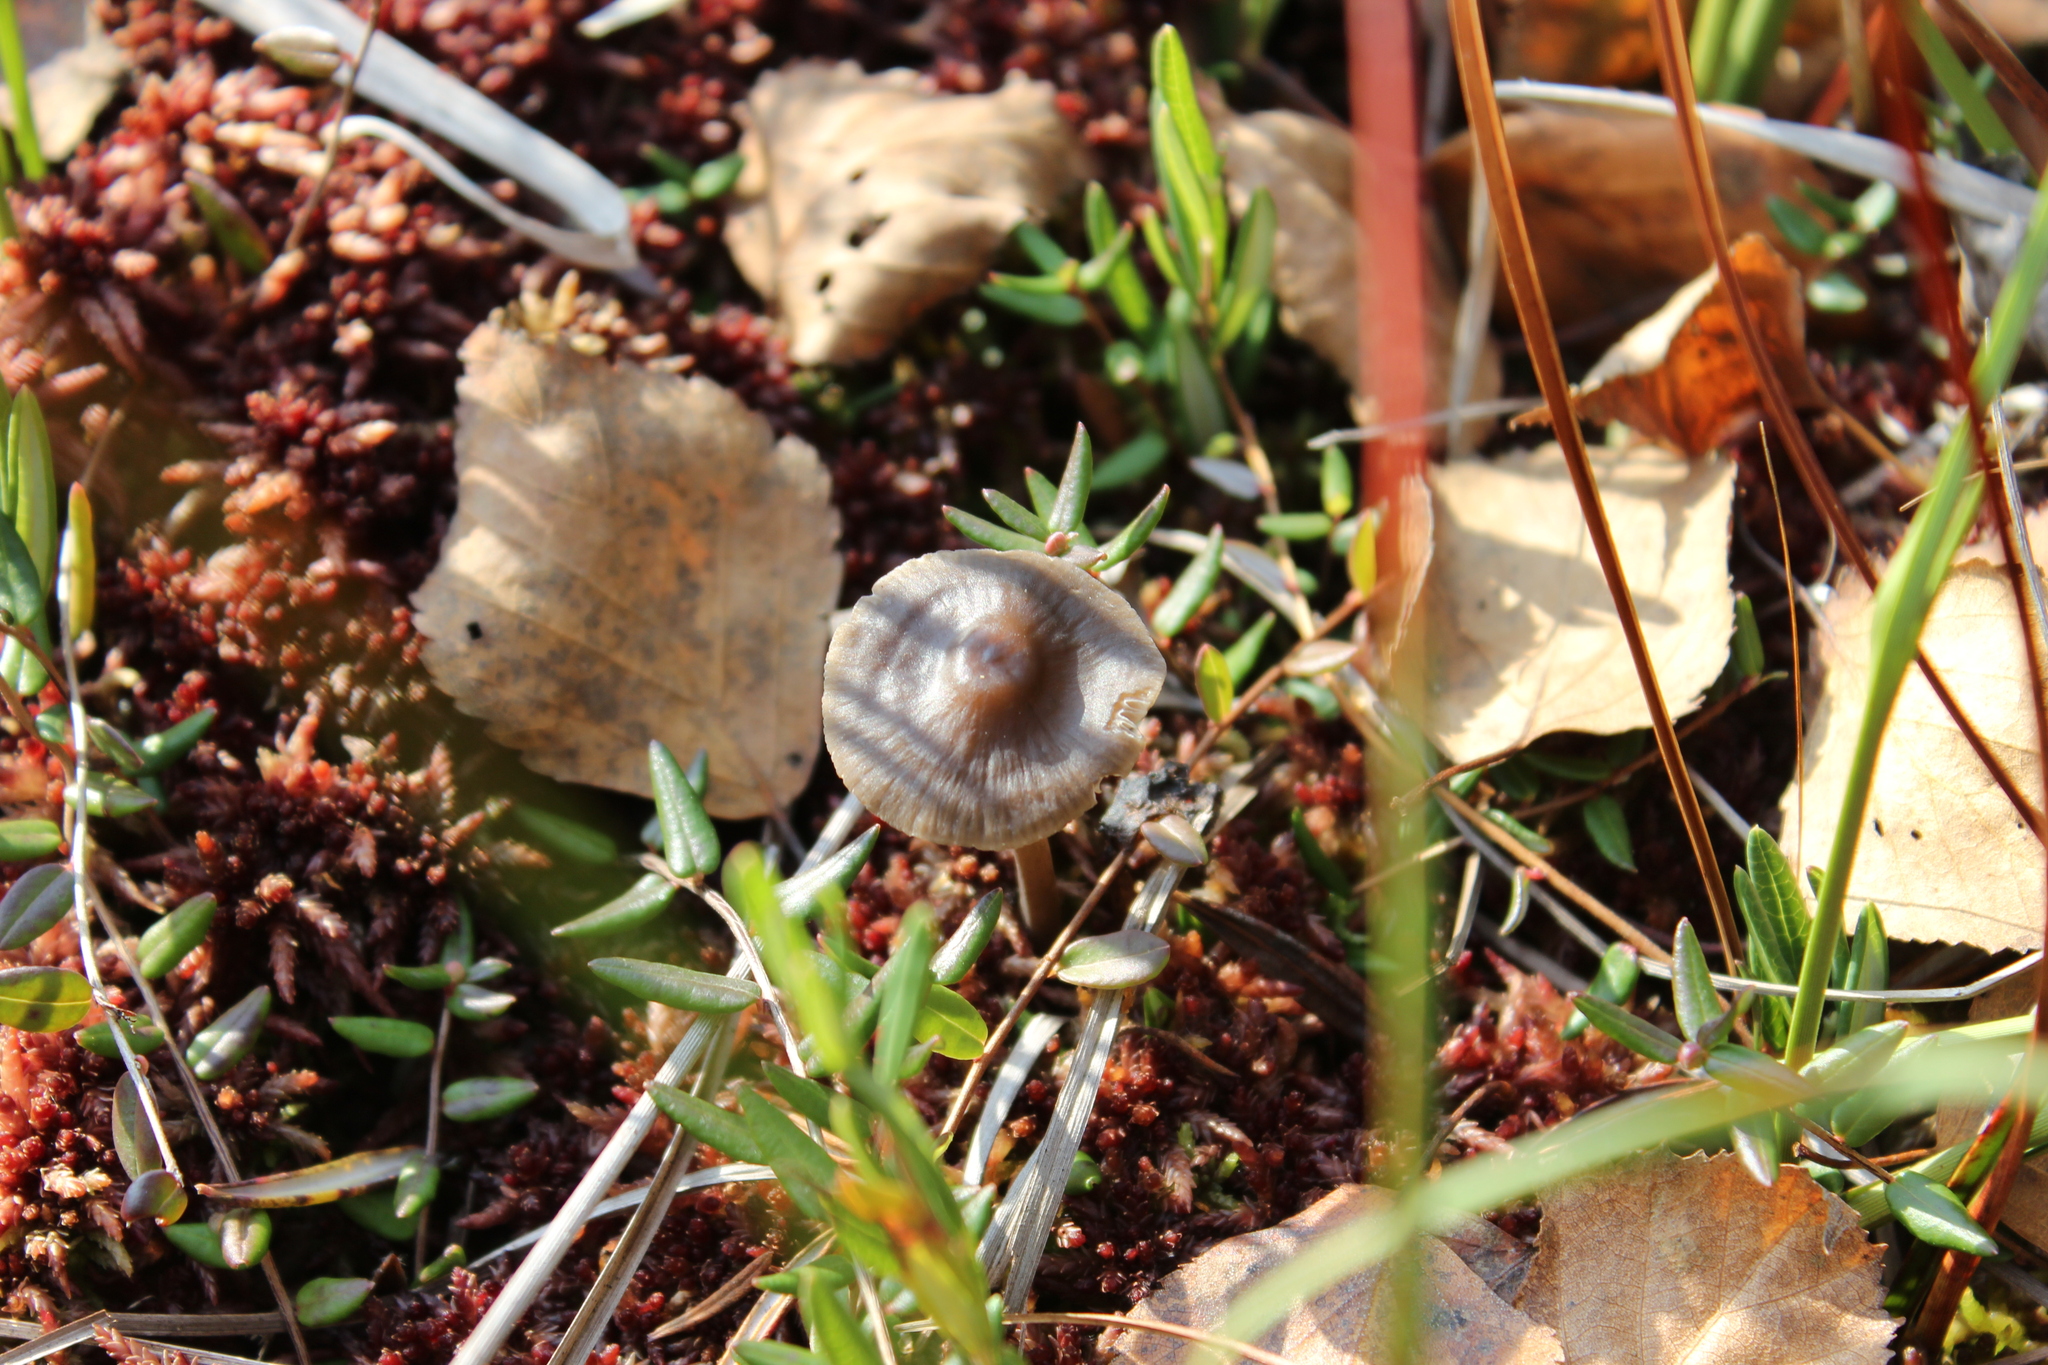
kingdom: Fungi
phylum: Basidiomycota
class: Agaricomycetes
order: Agaricales
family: Mycenaceae
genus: Mycena
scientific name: Mycena megaspora
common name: Rooting bonnet
